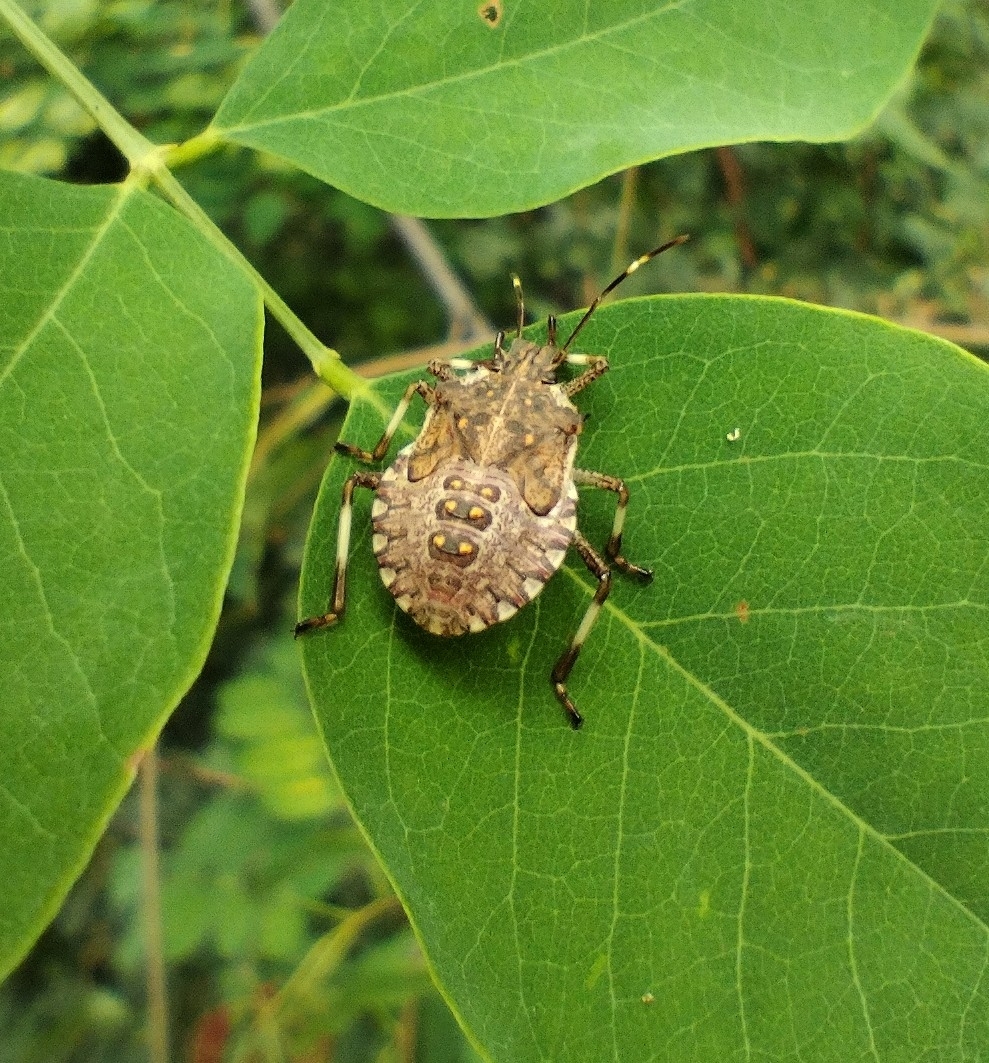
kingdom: Animalia
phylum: Arthropoda
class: Insecta
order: Hemiptera
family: Pentatomidae
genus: Halyomorpha
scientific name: Halyomorpha halys
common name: Brown marmorated stink bug
